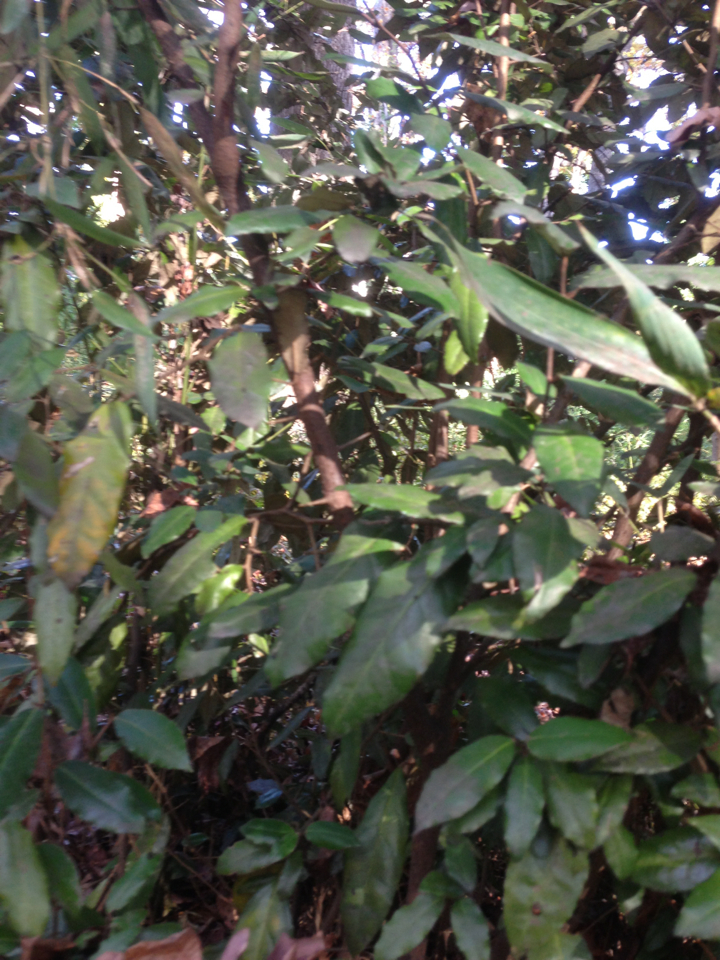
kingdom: Plantae
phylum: Tracheophyta
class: Magnoliopsida
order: Rosales
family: Elaeagnaceae
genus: Elaeagnus
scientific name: Elaeagnus pungens
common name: Spiny oleaster
